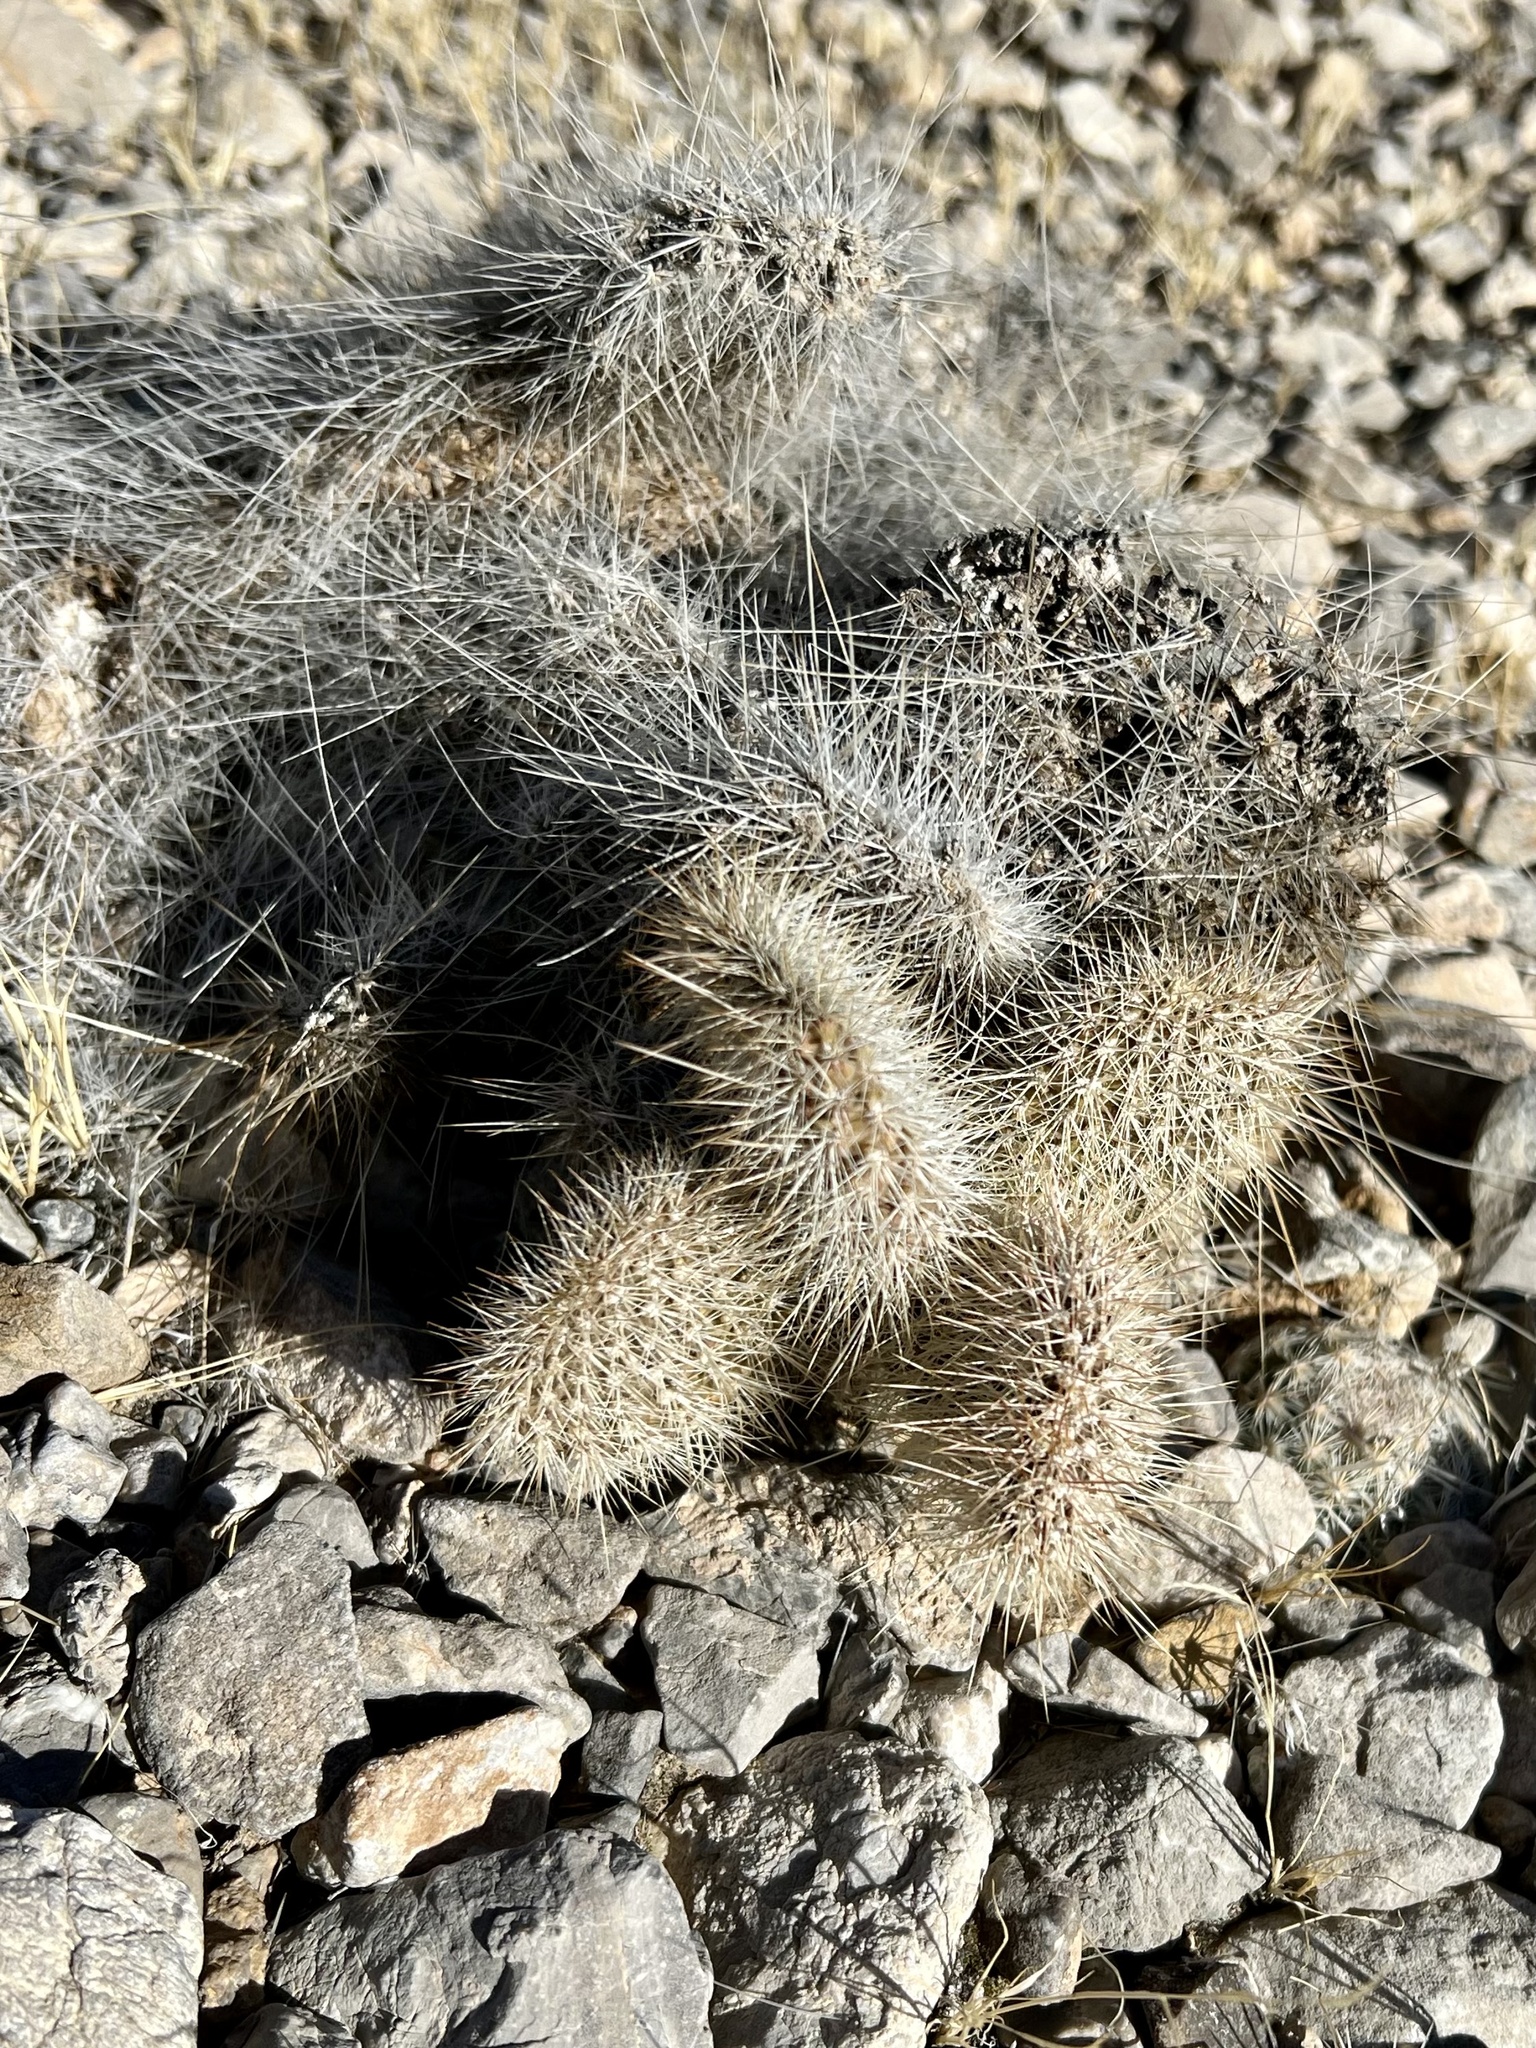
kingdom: Plantae
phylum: Tracheophyta
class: Magnoliopsida
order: Caryophyllales
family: Cactaceae
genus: Opuntia
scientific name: Opuntia polyacantha
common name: Plains prickly-pear
